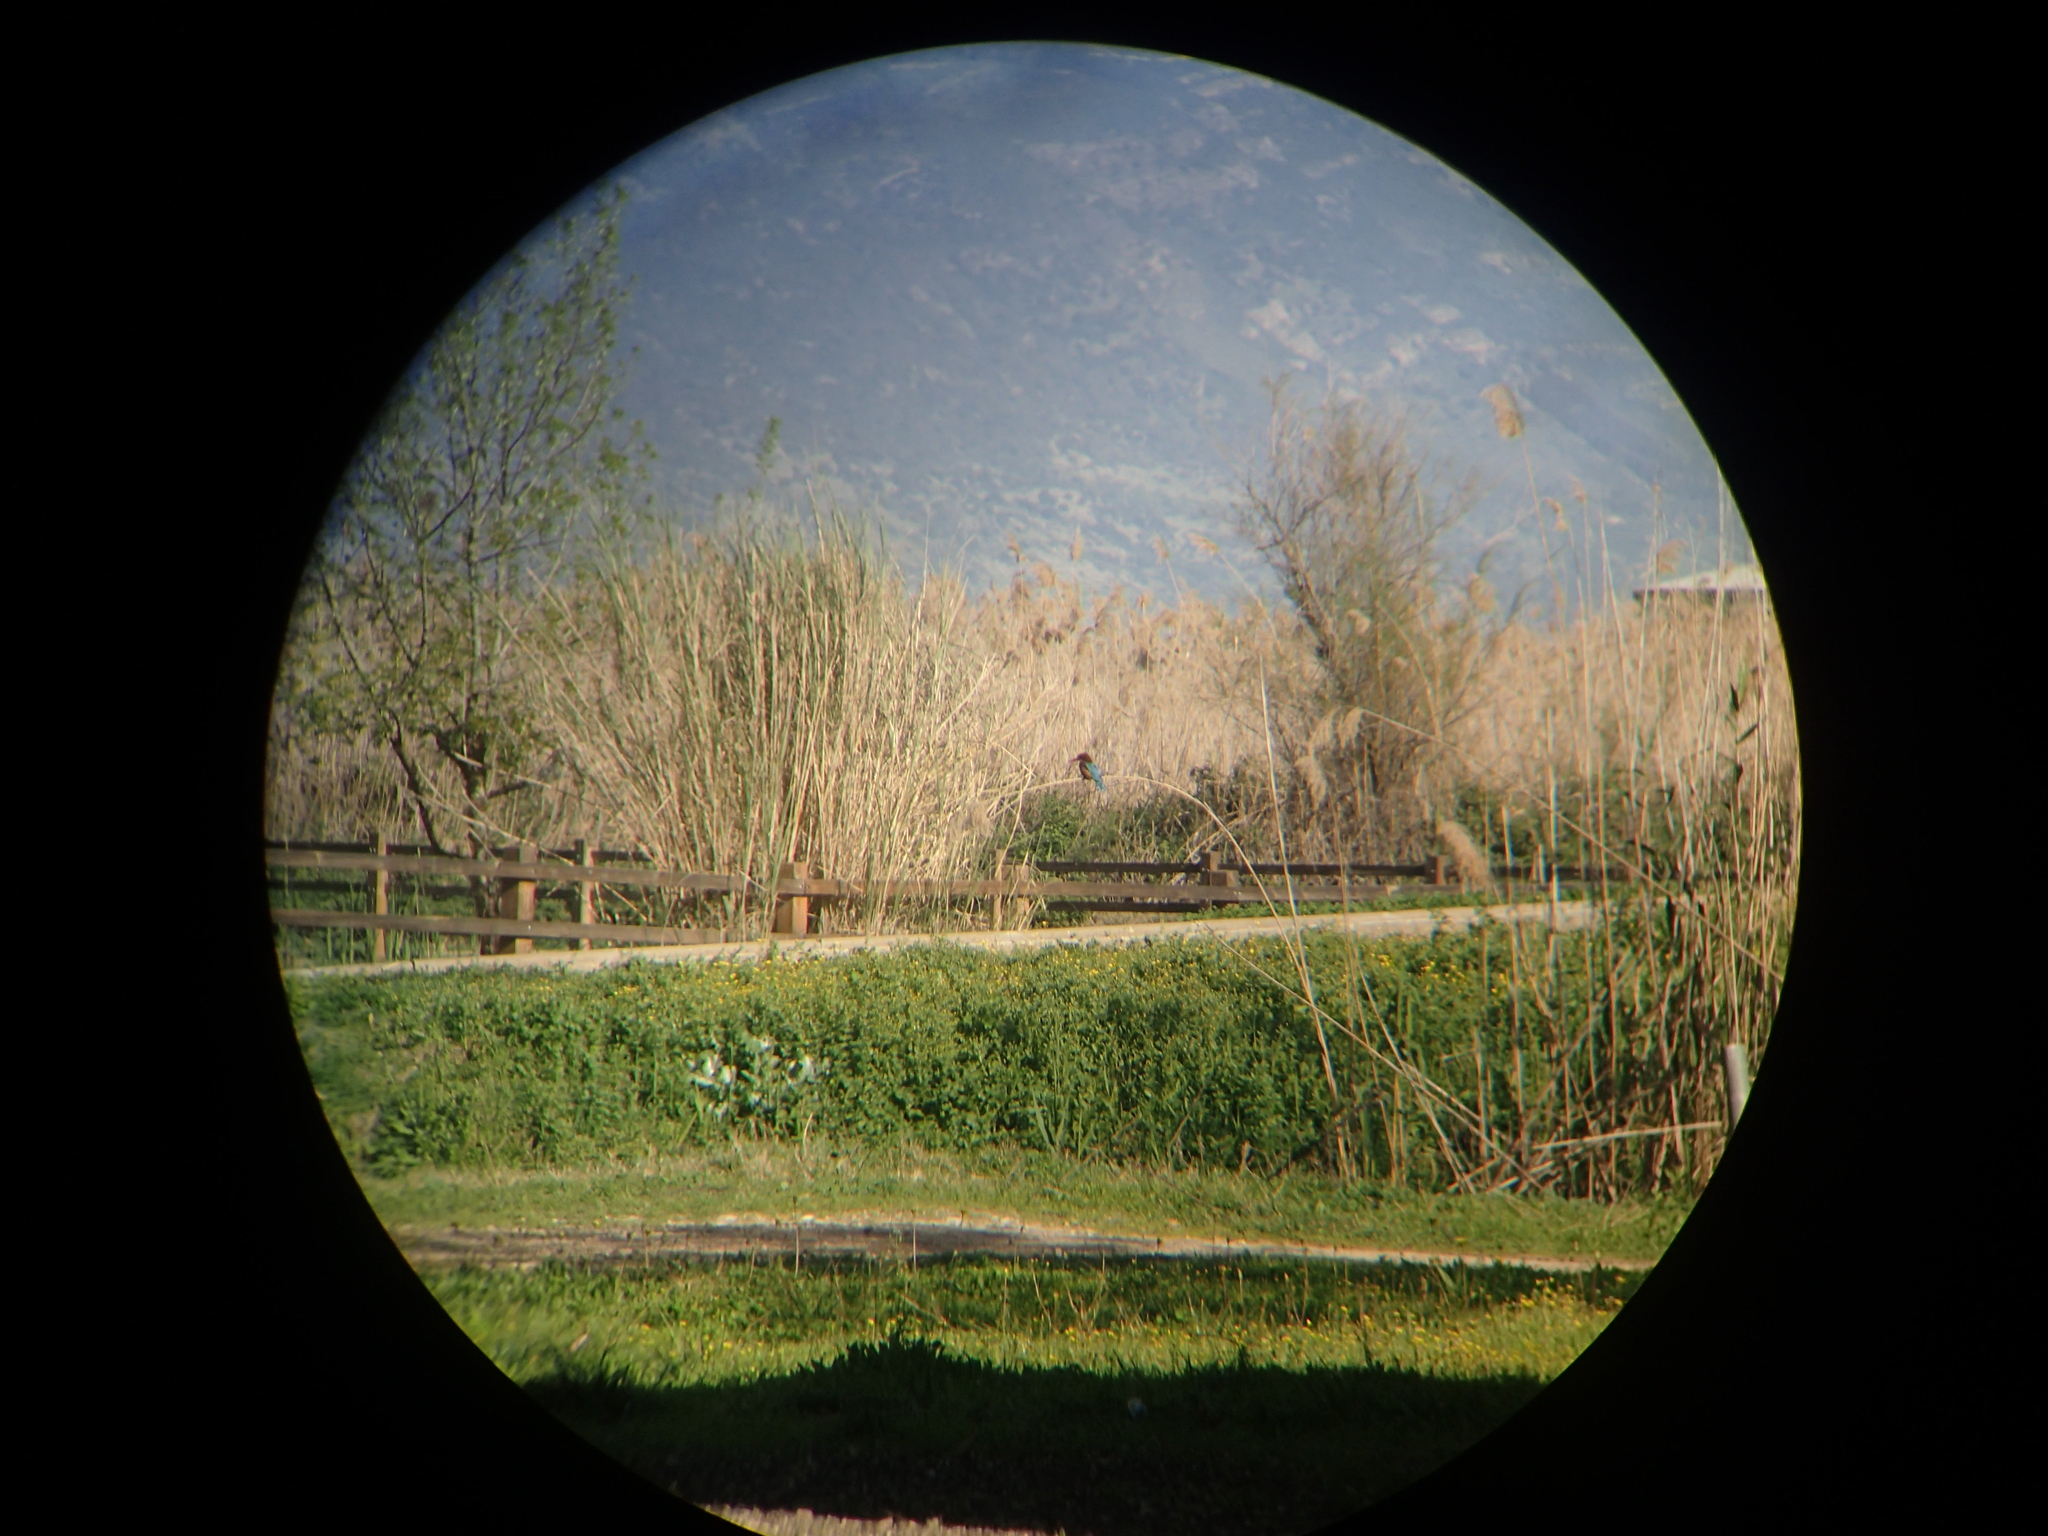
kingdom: Animalia
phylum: Chordata
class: Aves
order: Coraciiformes
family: Alcedinidae
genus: Halcyon
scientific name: Halcyon smyrnensis
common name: White-throated kingfisher
